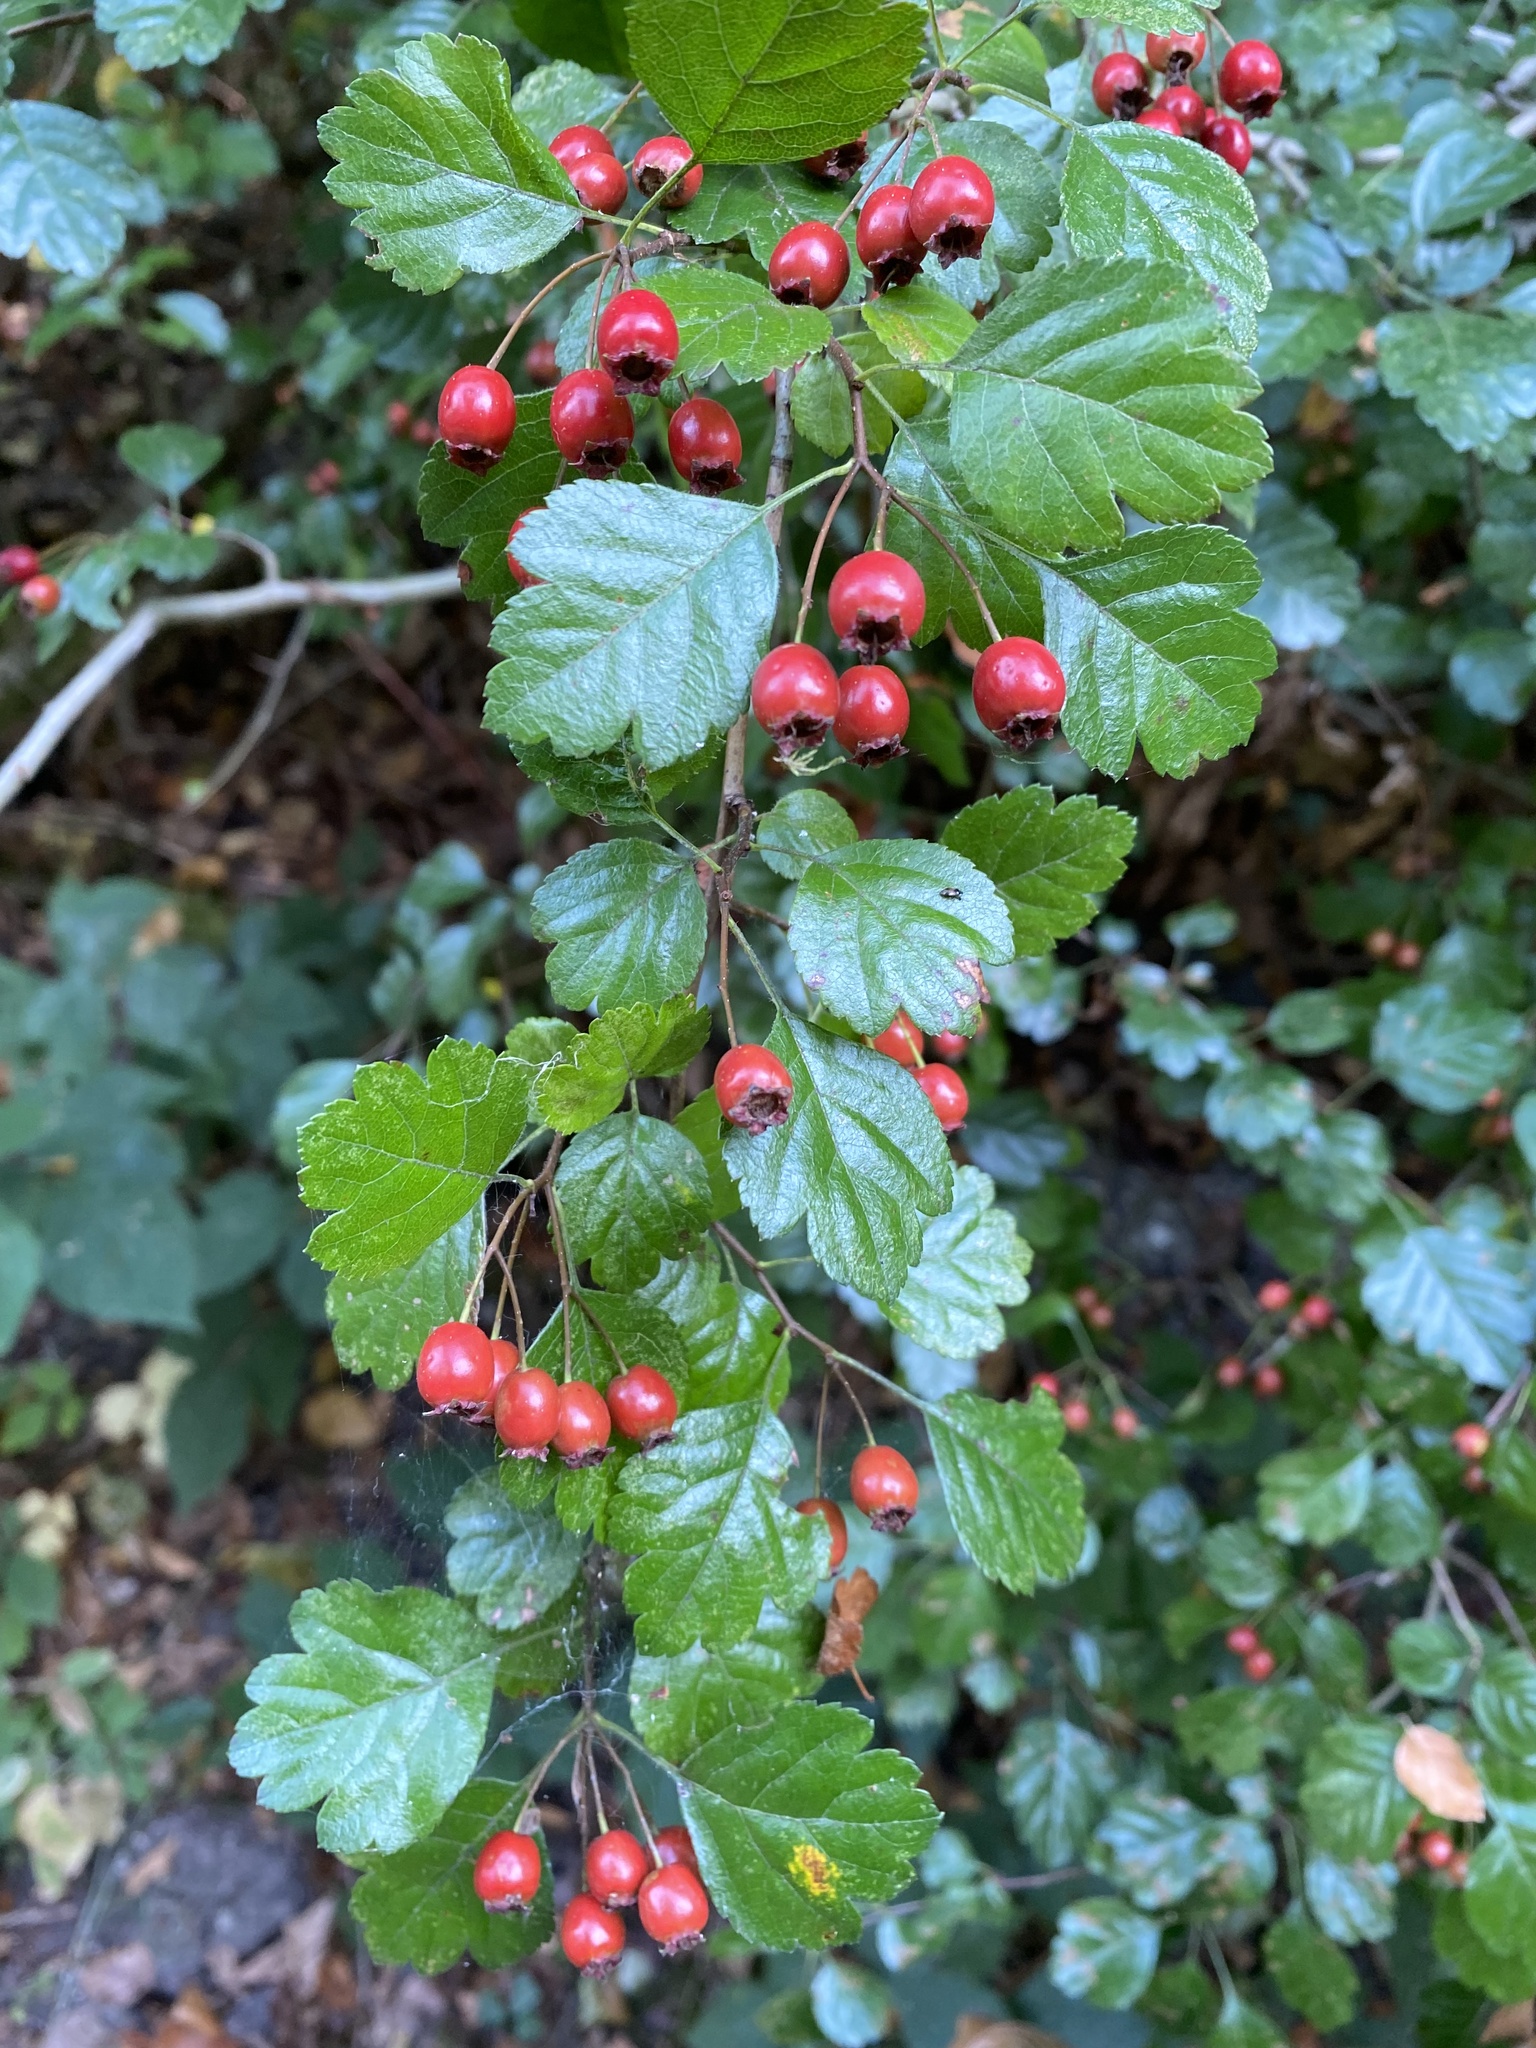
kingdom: Plantae
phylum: Tracheophyta
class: Magnoliopsida
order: Rosales
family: Rosaceae
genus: Crataegus
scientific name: Crataegus laevigata
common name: Midland hawthorn
